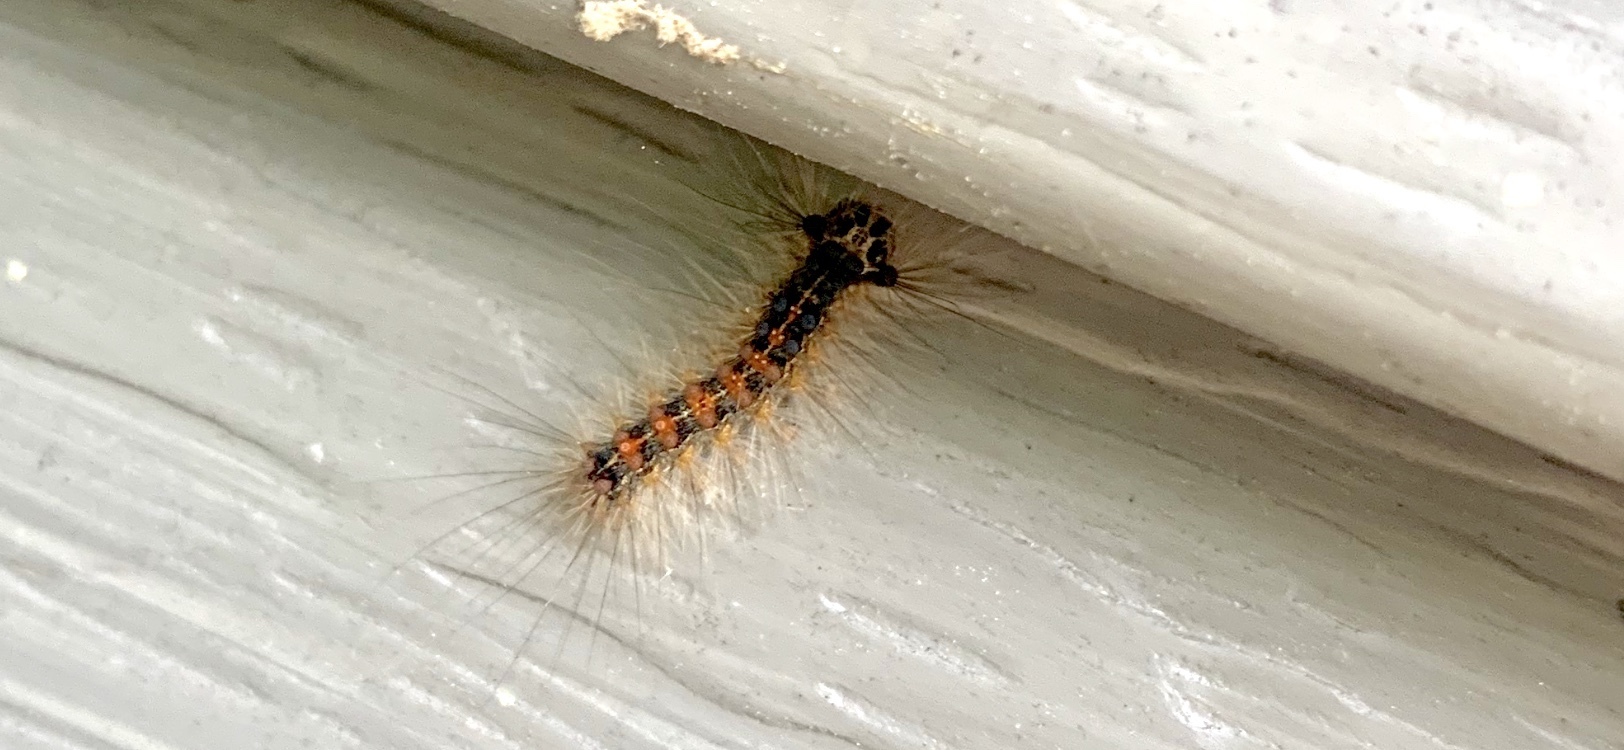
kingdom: Animalia
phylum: Arthropoda
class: Insecta
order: Lepidoptera
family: Erebidae
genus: Lymantria
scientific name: Lymantria dispar
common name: Gypsy moth
